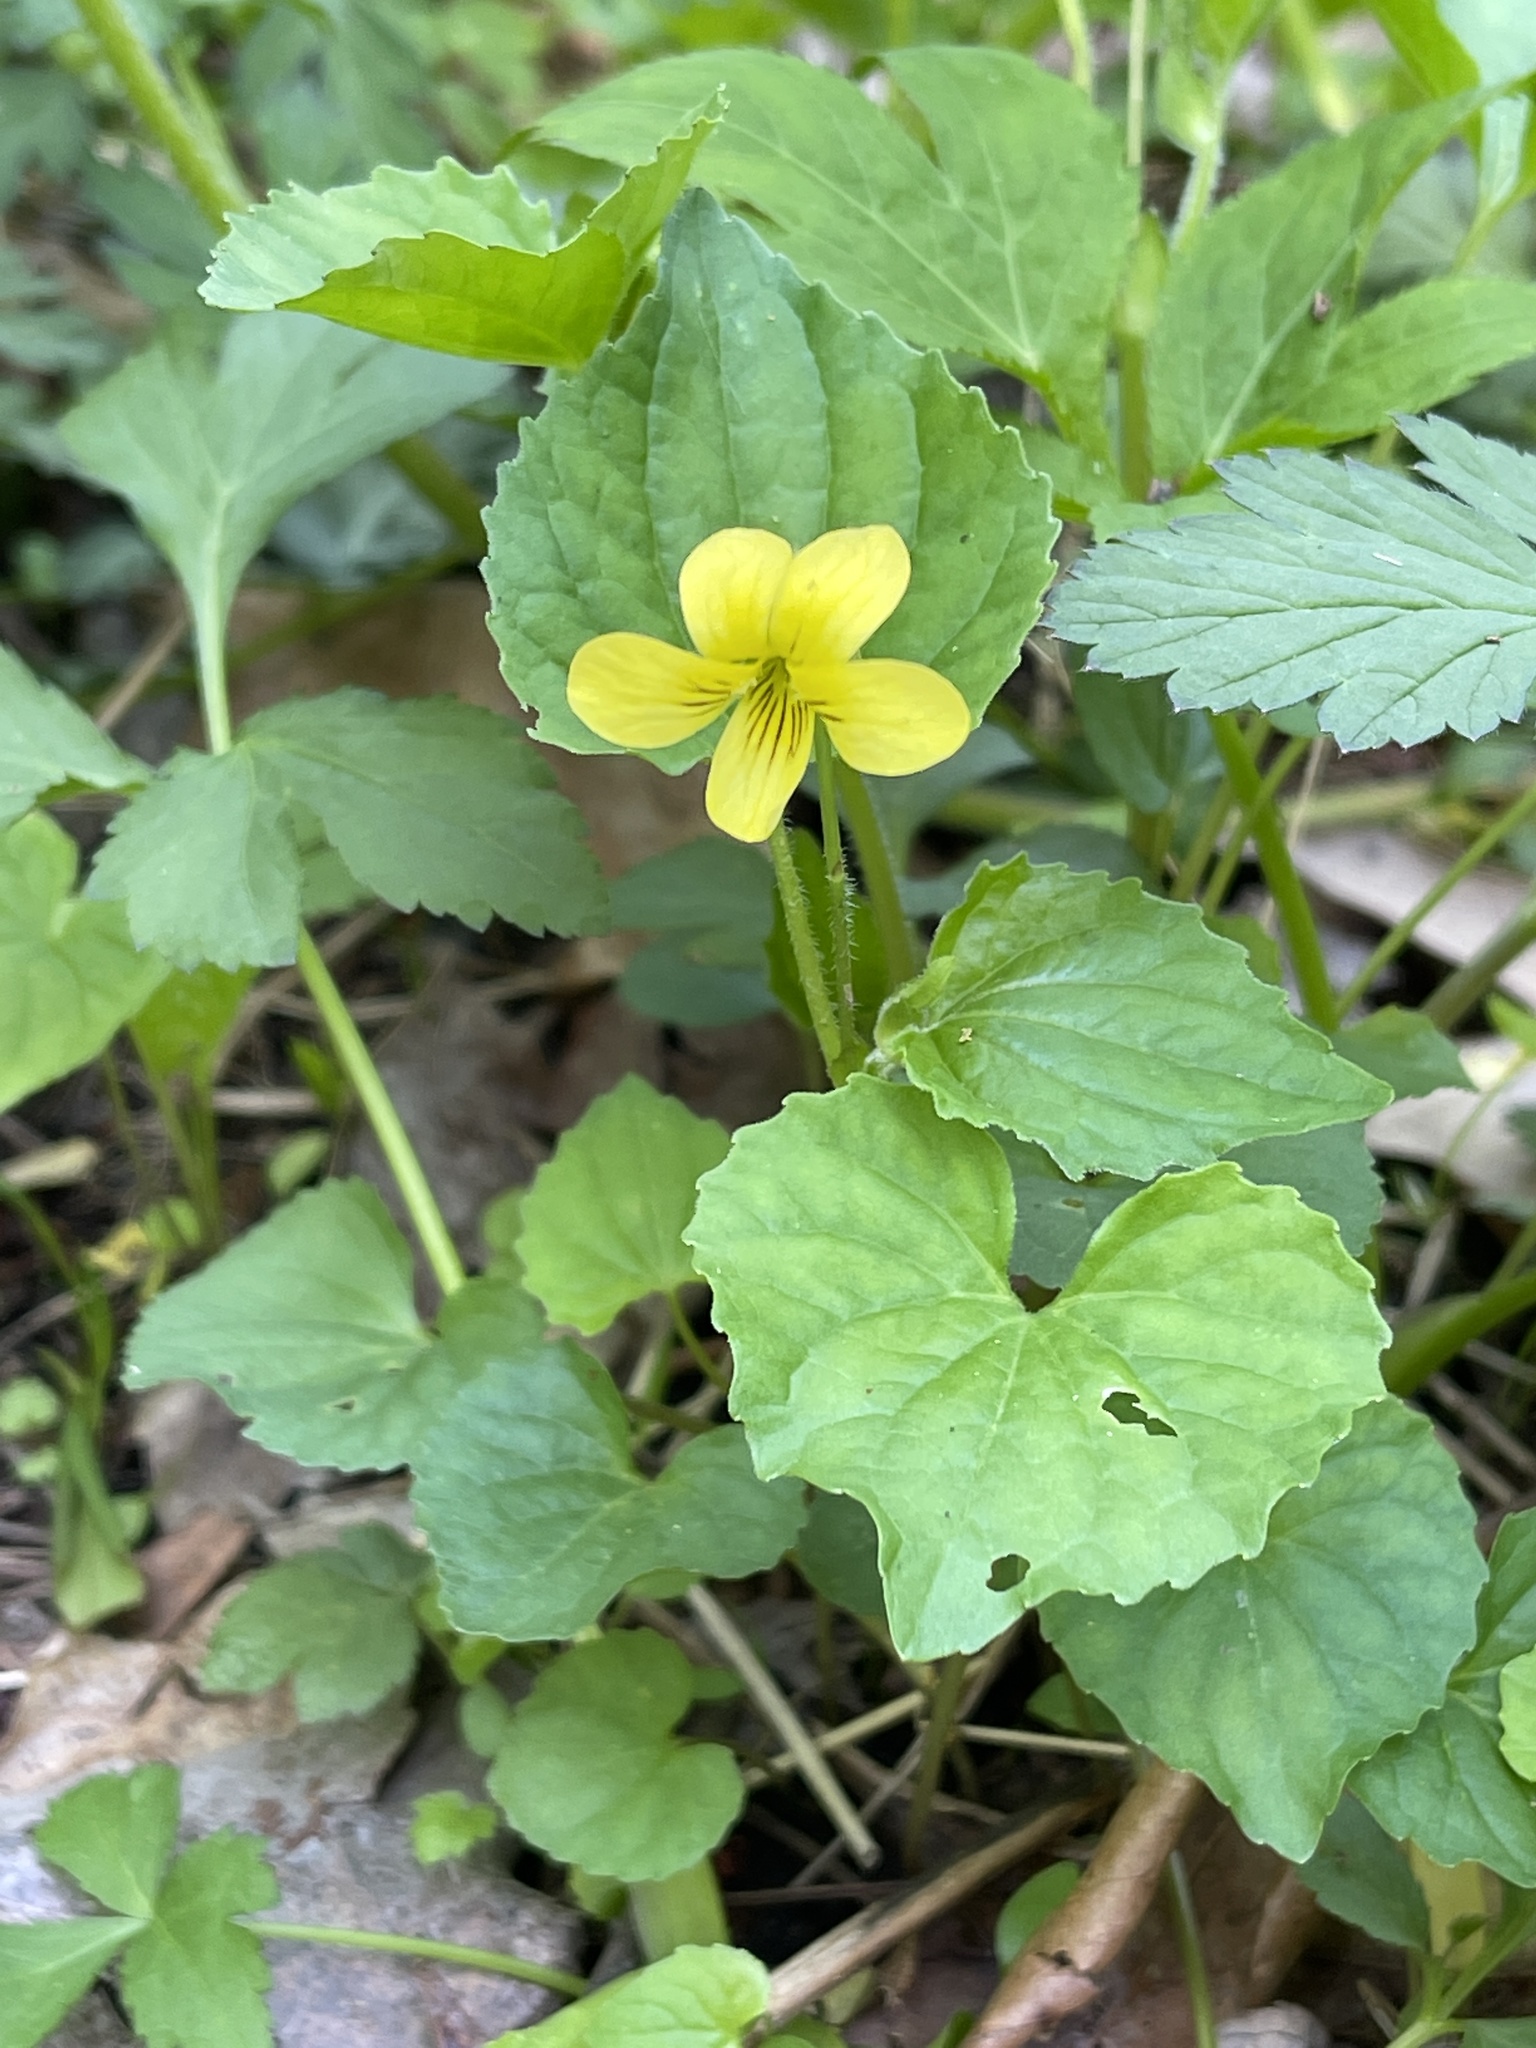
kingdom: Plantae
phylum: Tracheophyta
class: Magnoliopsida
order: Malpighiales
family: Violaceae
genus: Viola
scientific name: Viola eriocarpa
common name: Smooth yellow violet
